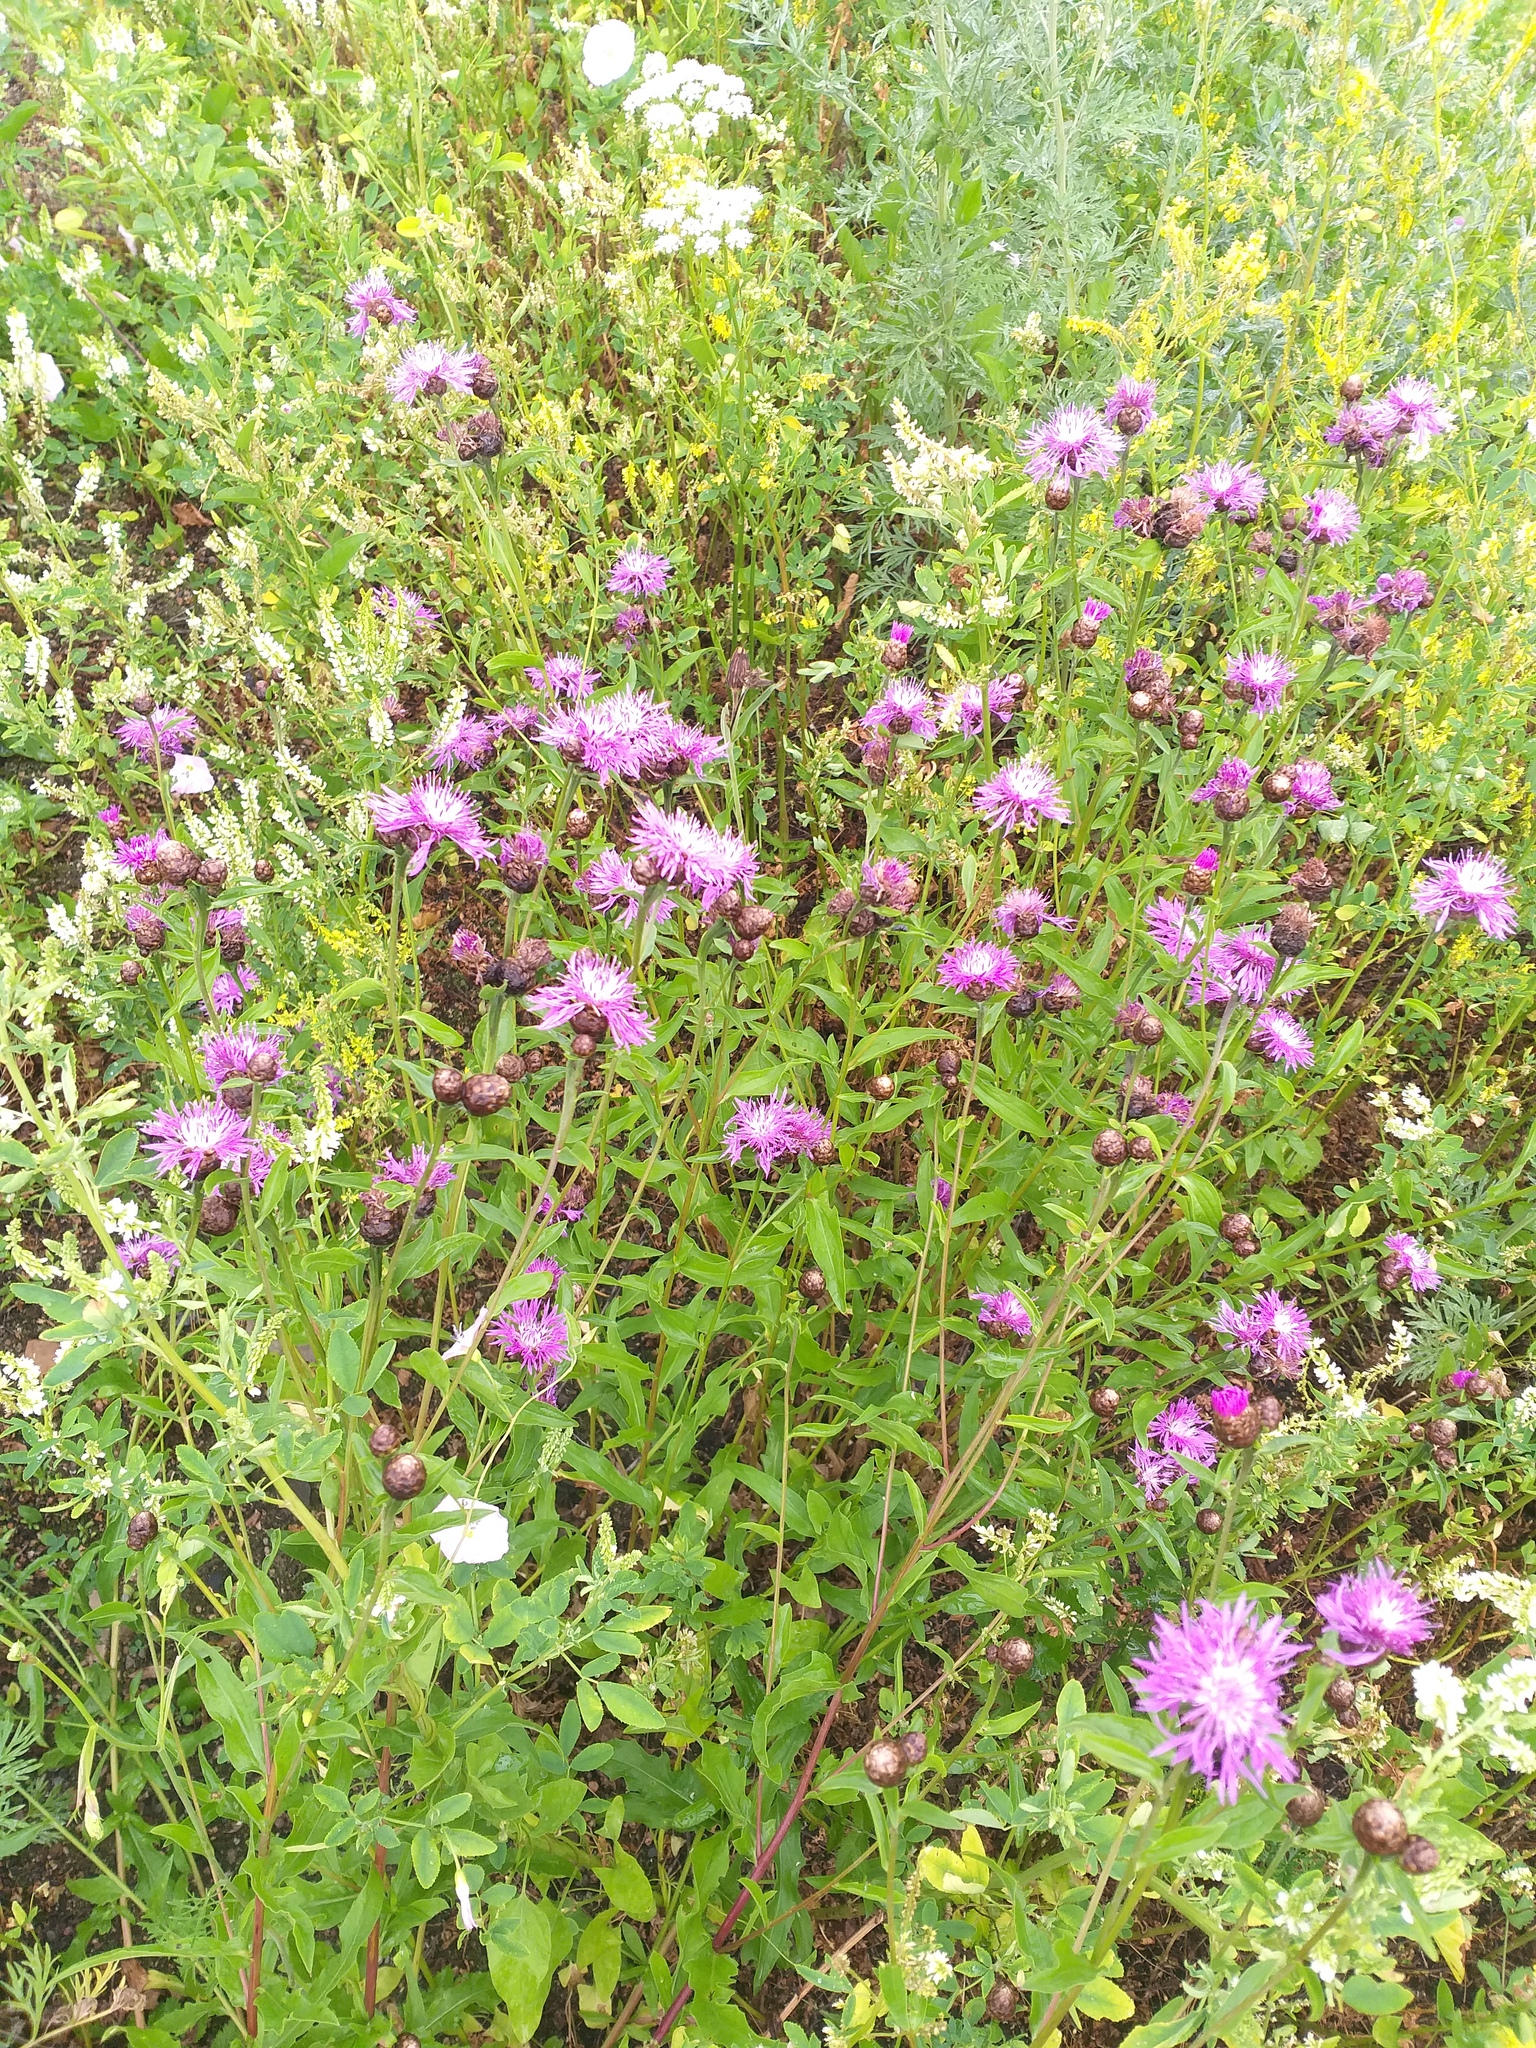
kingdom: Plantae
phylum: Tracheophyta
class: Magnoliopsida
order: Asterales
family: Asteraceae
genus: Centaurea
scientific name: Centaurea jacea
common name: Brown knapweed
